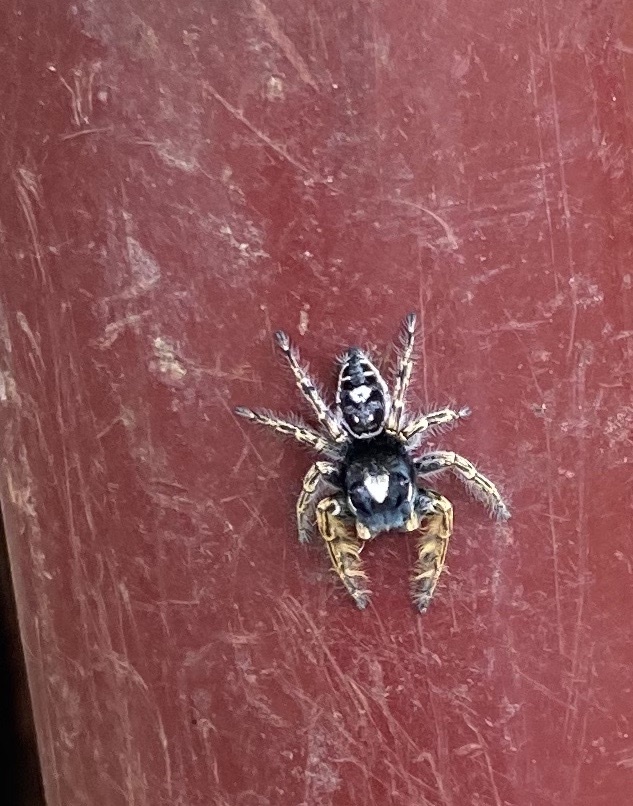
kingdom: Animalia
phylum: Arthropoda
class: Arachnida
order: Araneae
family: Salticidae
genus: Phidippus
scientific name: Phidippus putnami
